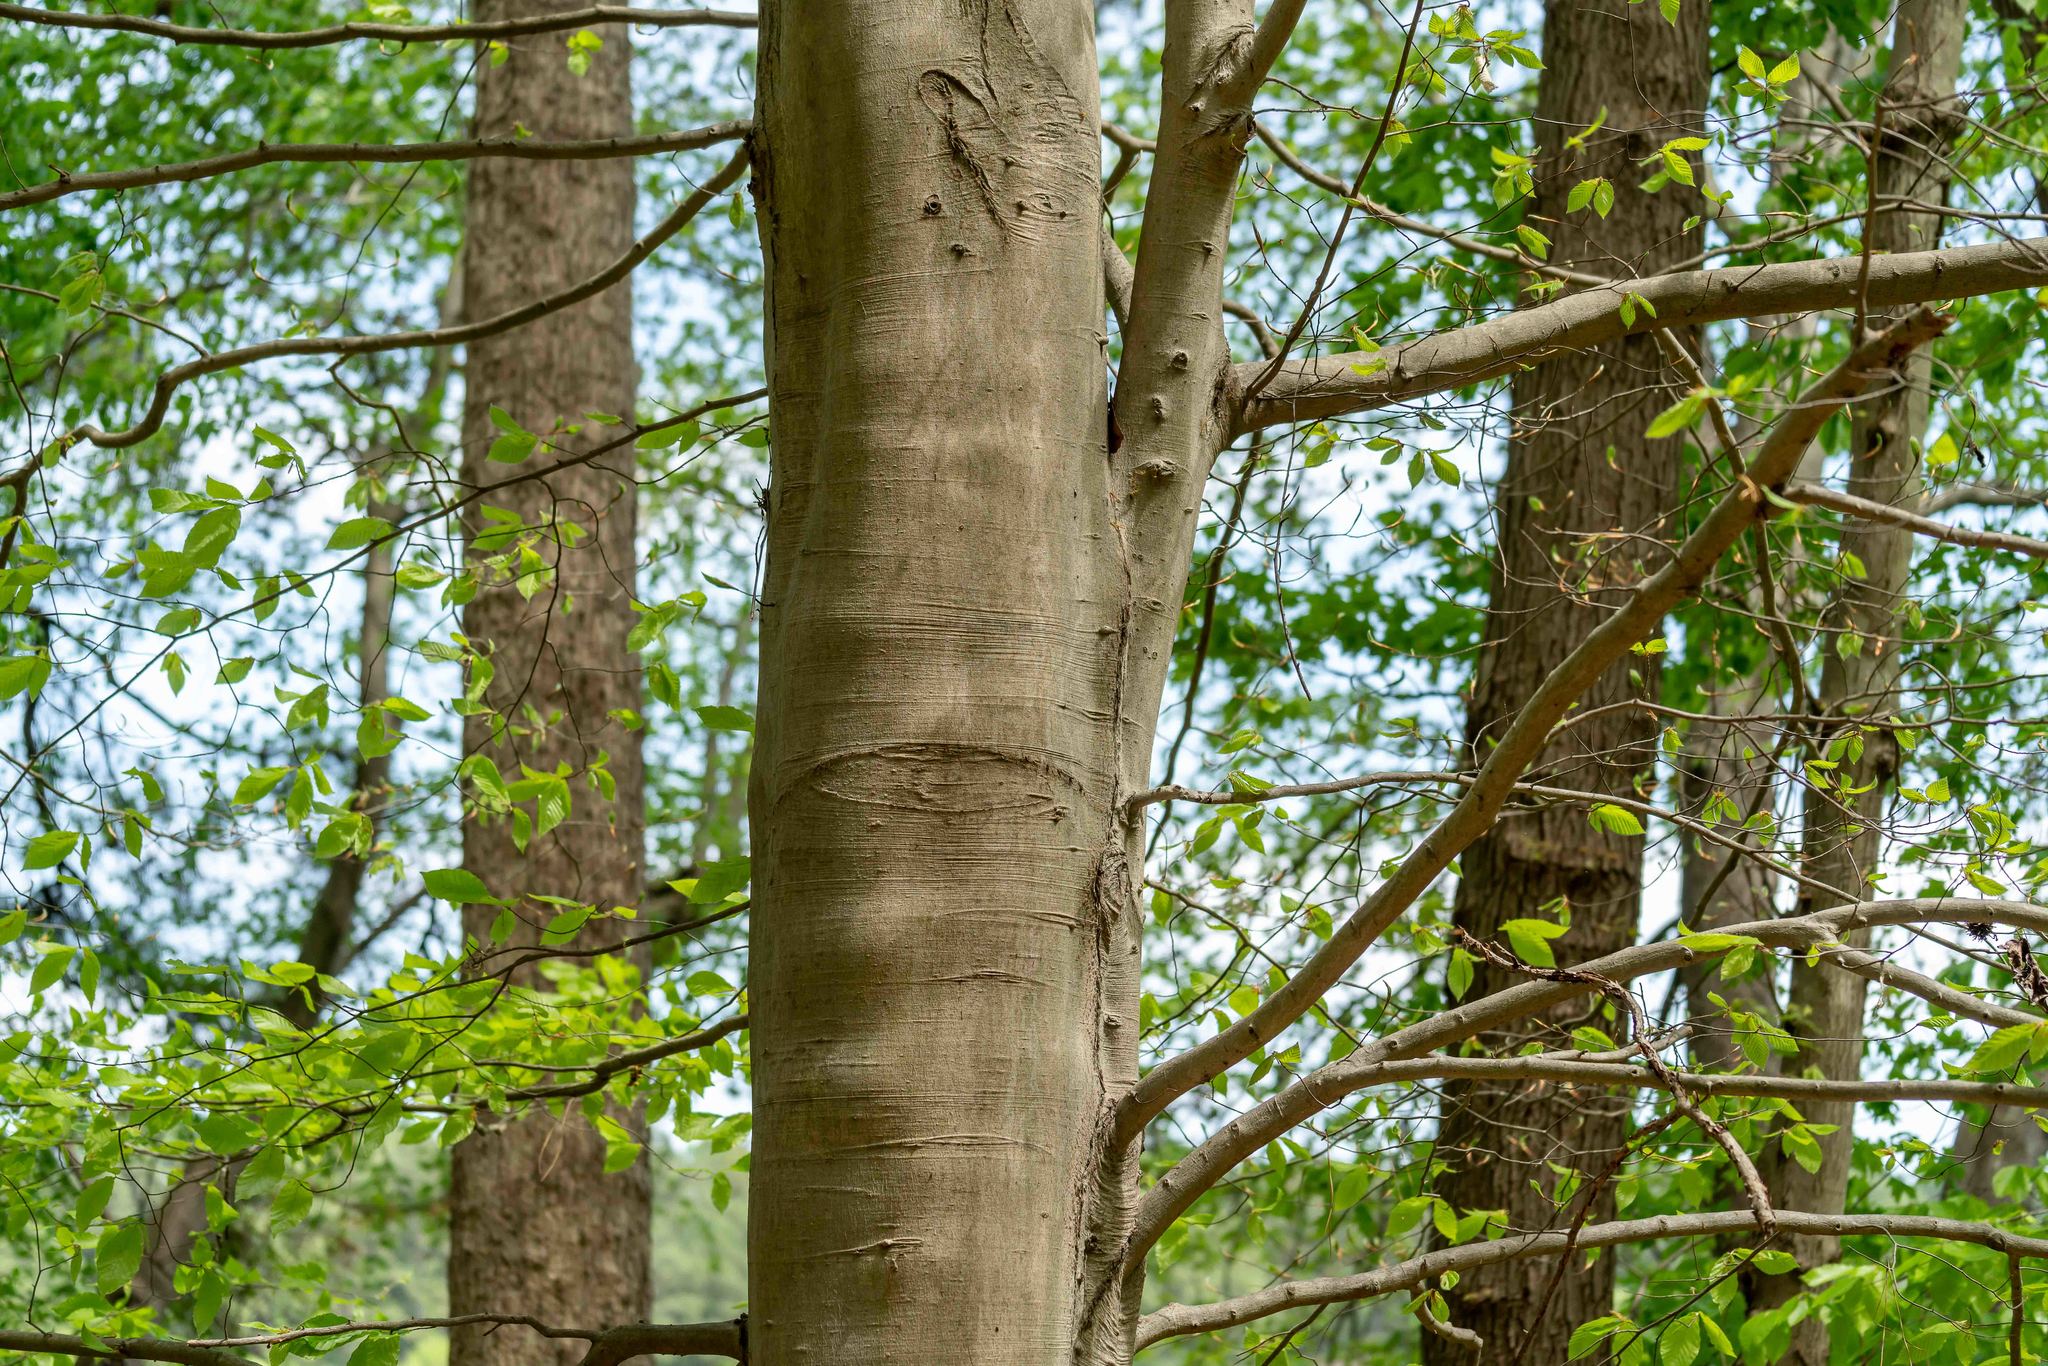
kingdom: Plantae
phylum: Tracheophyta
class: Magnoliopsida
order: Fagales
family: Fagaceae
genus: Fagus
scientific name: Fagus grandifolia
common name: American beech
